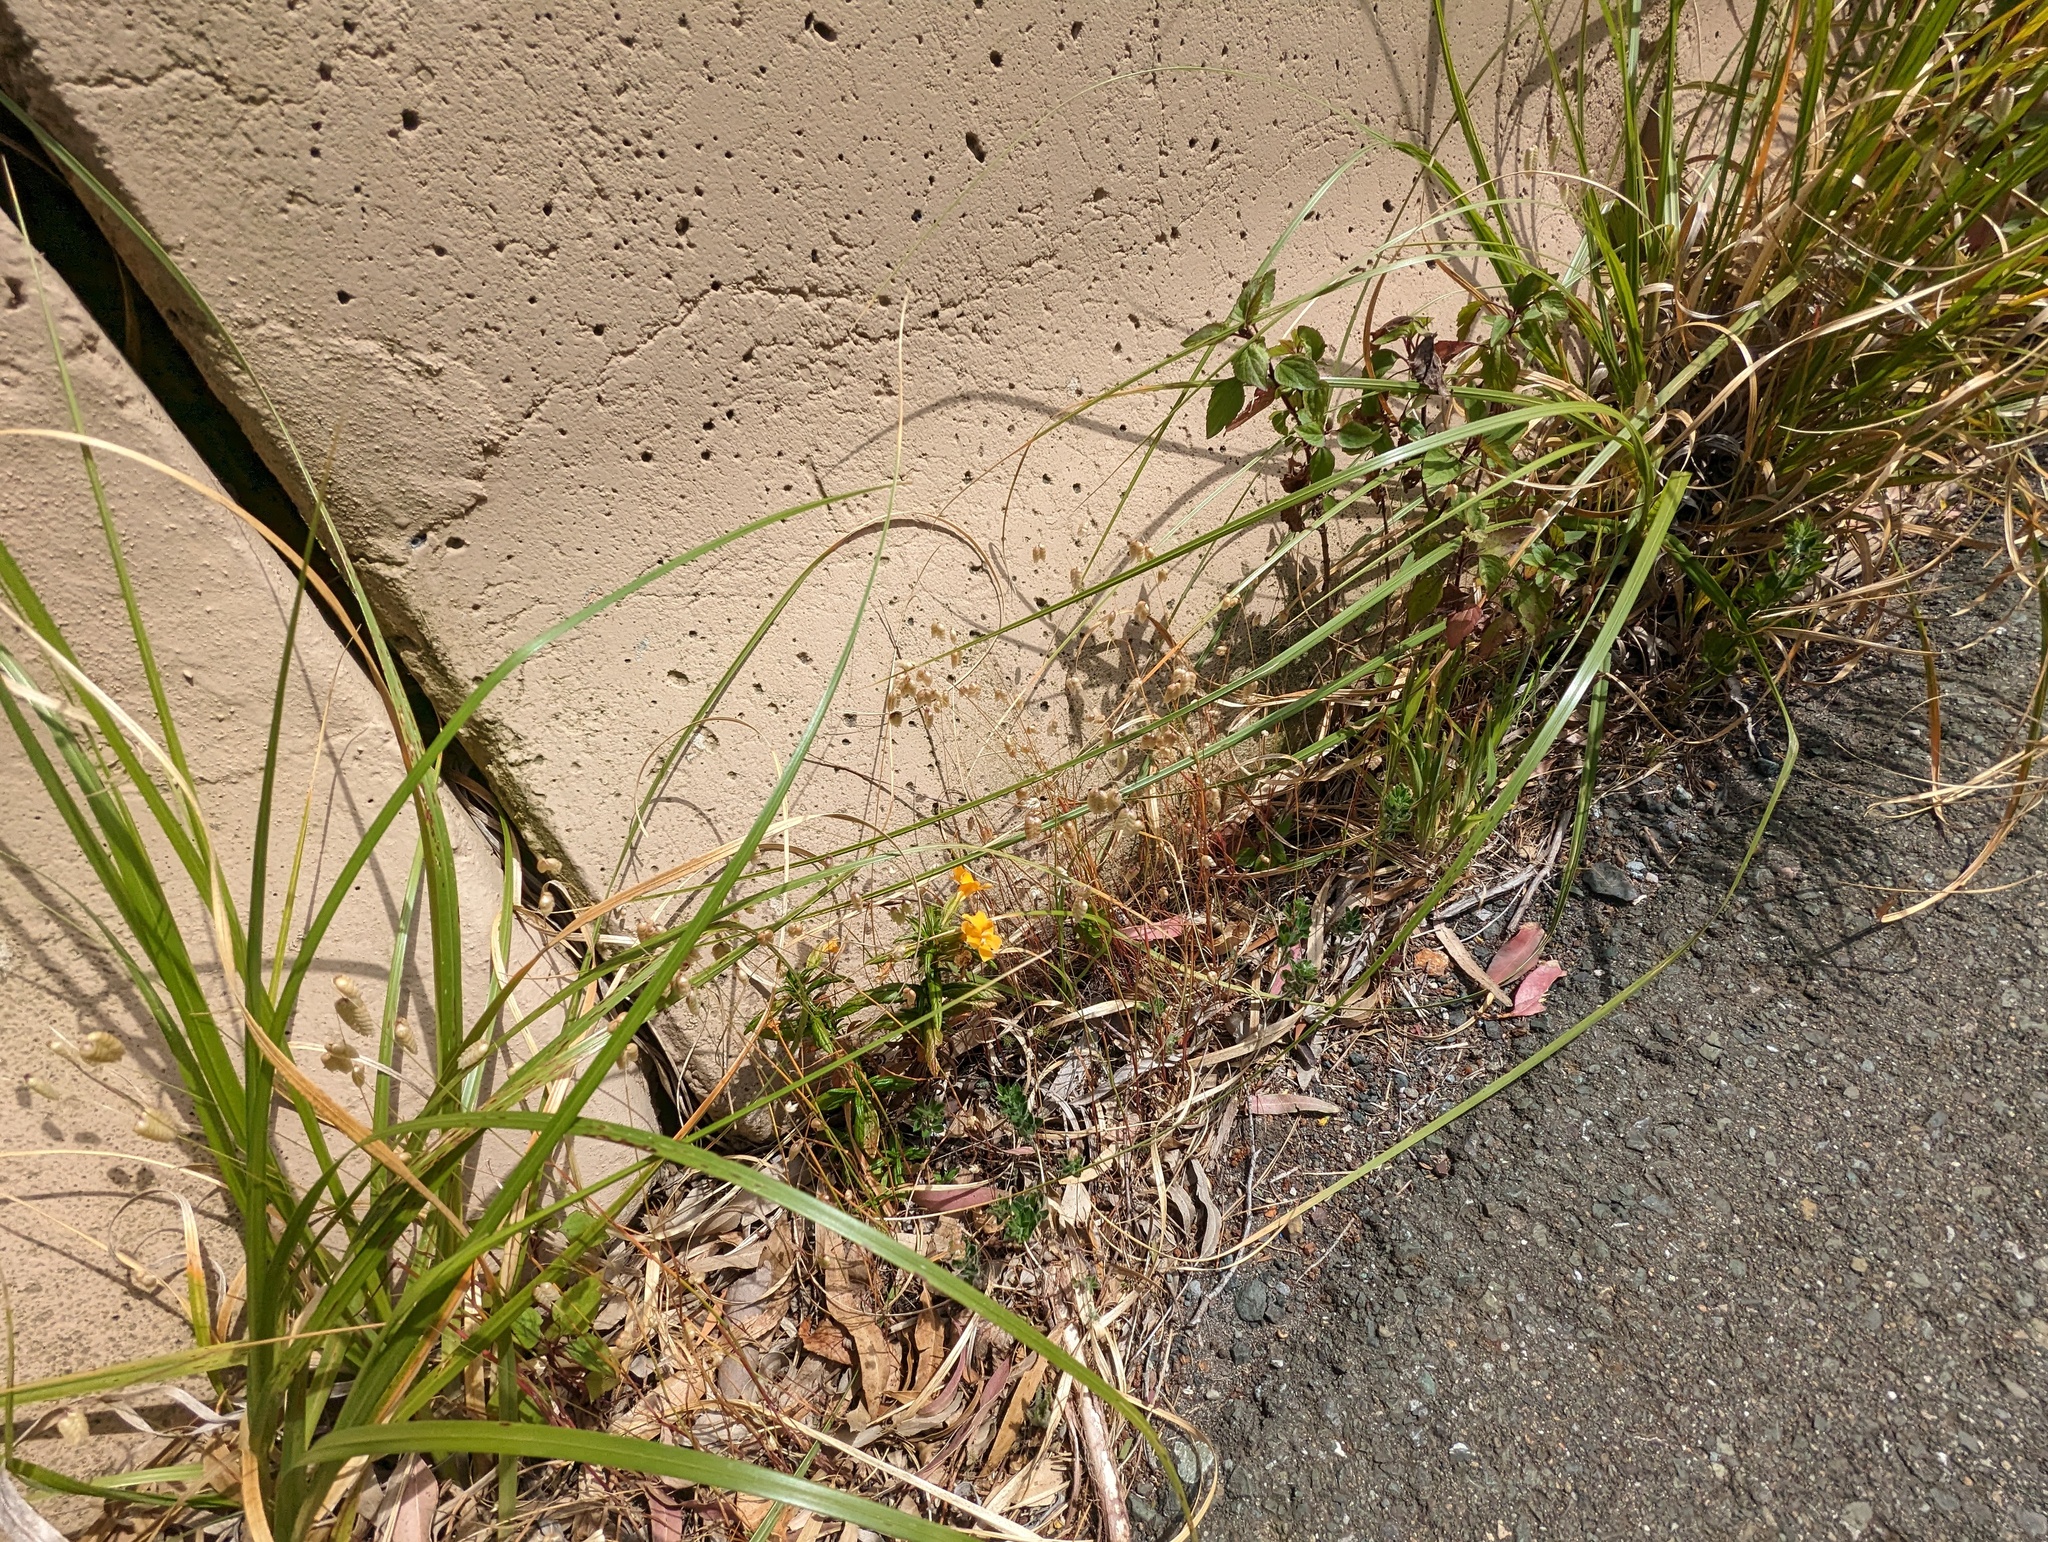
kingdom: Plantae
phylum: Tracheophyta
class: Liliopsida
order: Poales
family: Poaceae
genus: Briza
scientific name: Briza maxima
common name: Big quakinggrass
